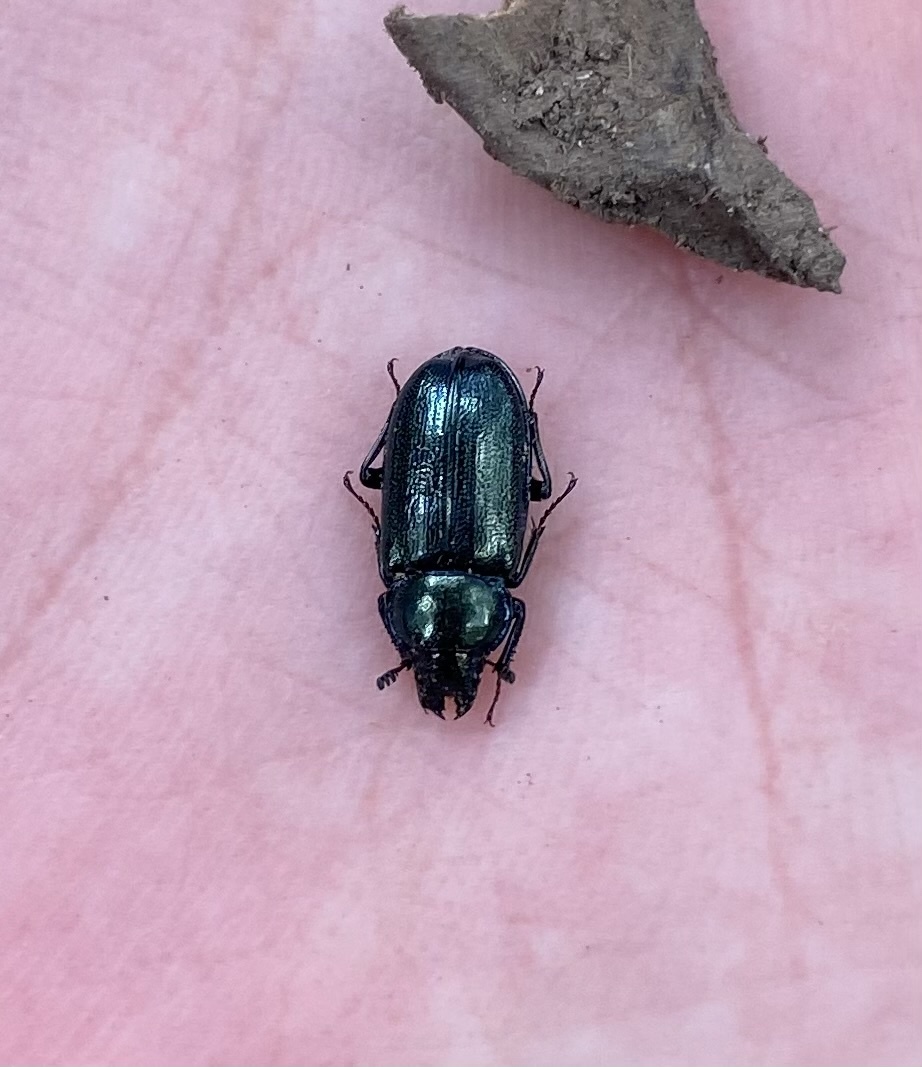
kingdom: Animalia
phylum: Arthropoda
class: Insecta
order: Coleoptera
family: Lucanidae
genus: Platycerus
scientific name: Platycerus
